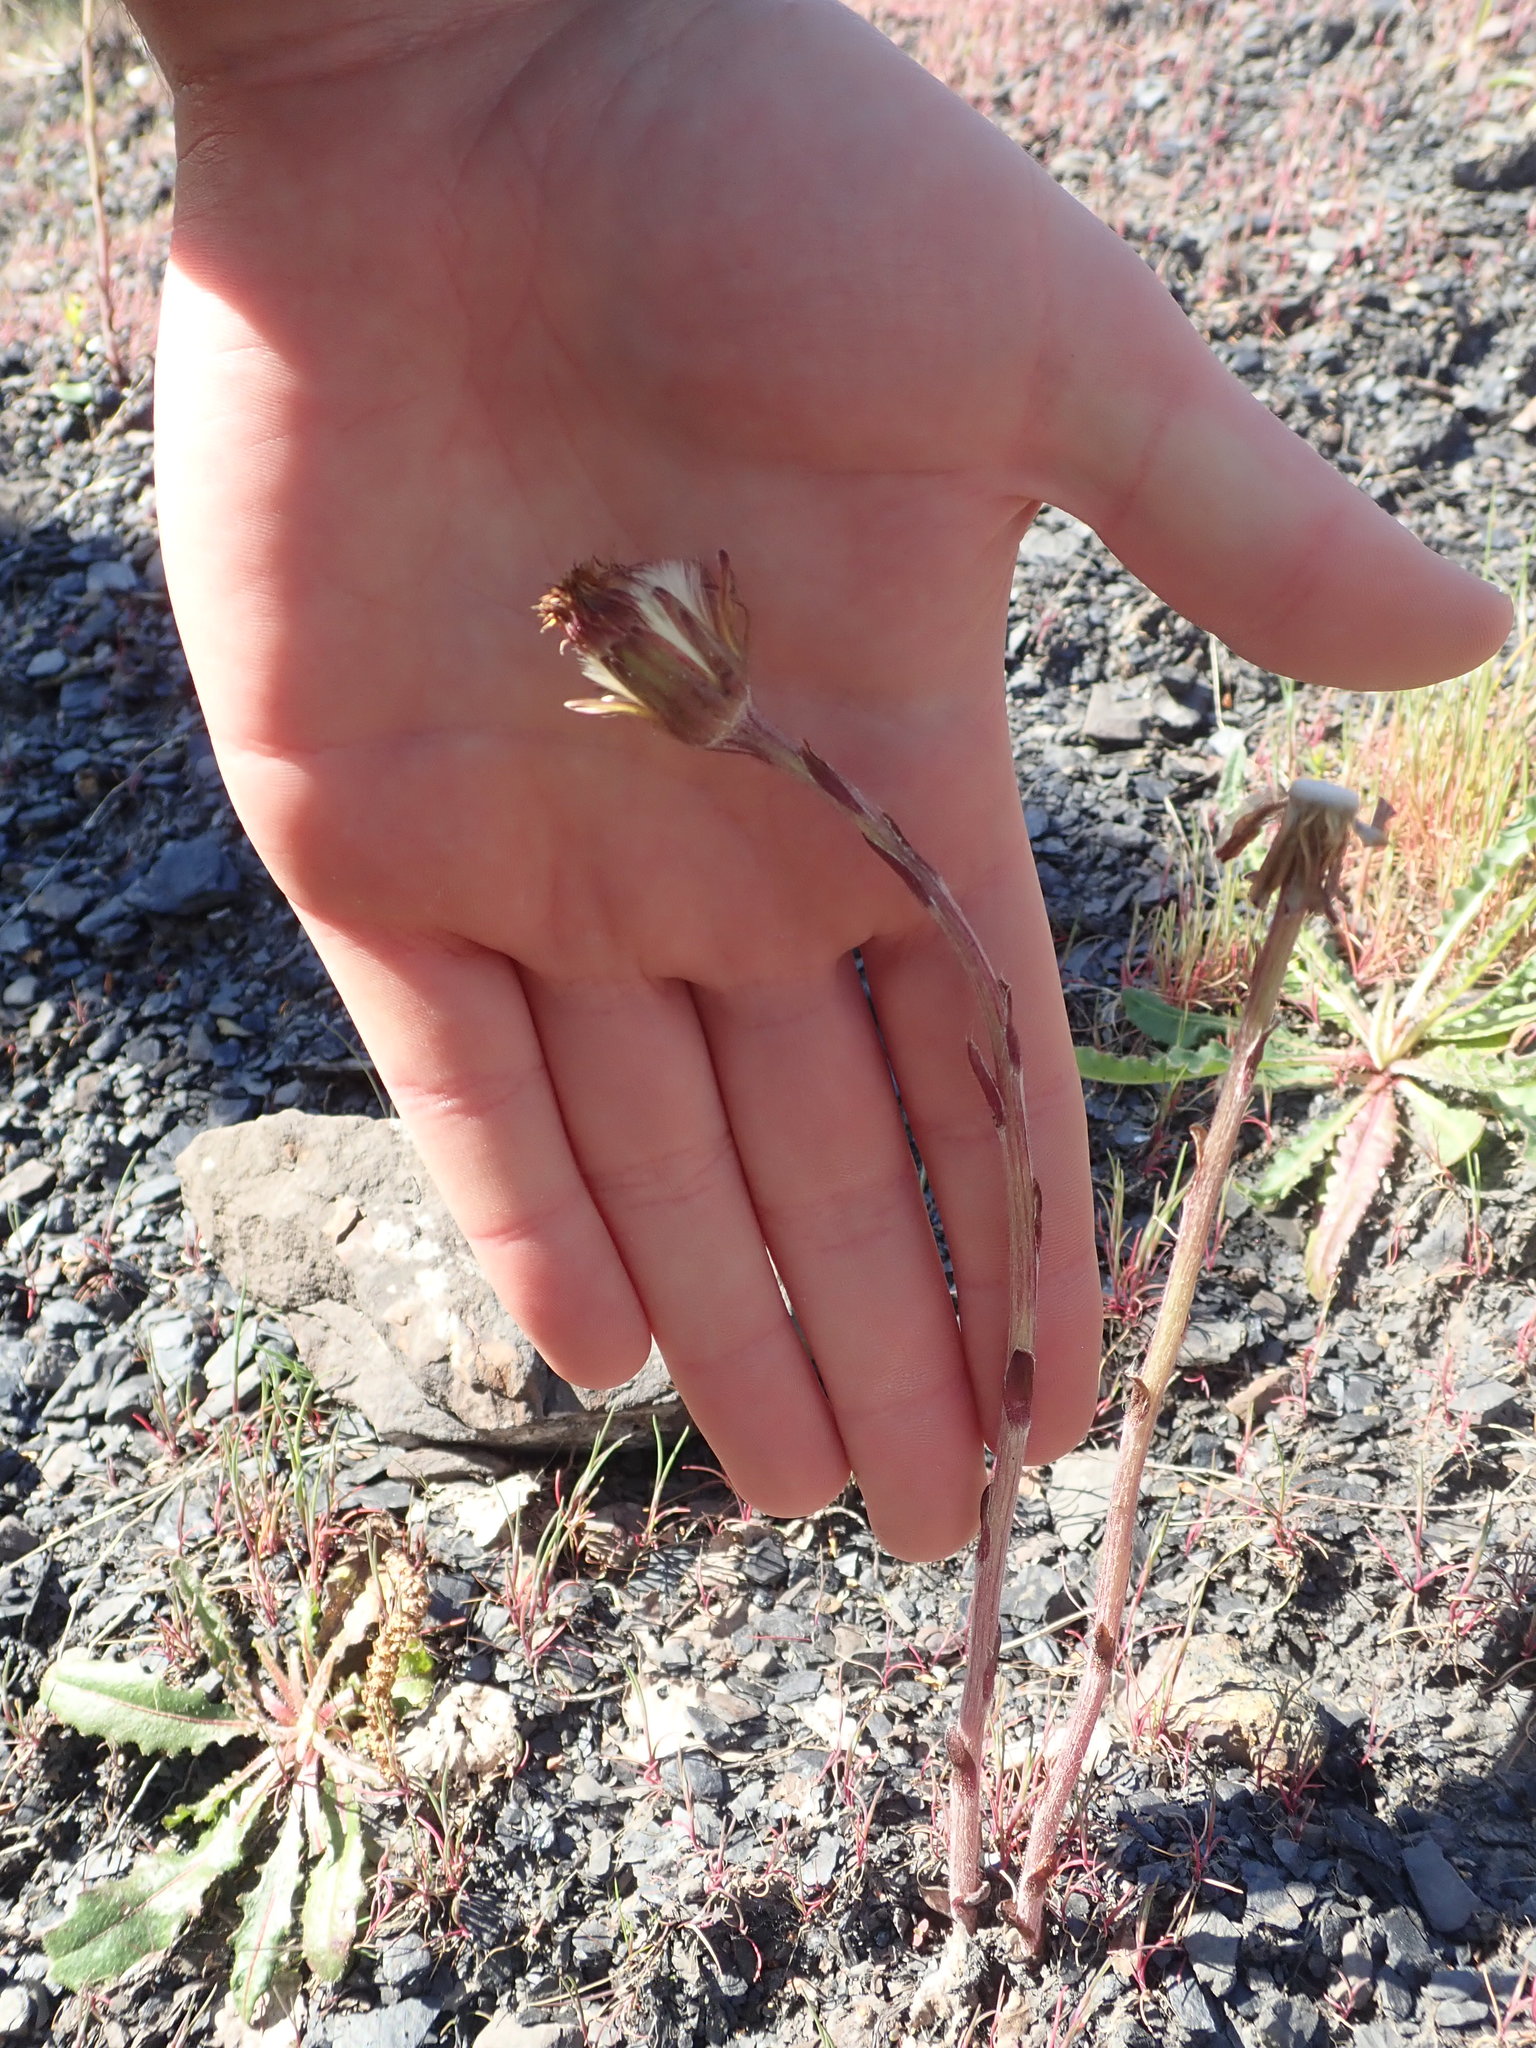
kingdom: Plantae
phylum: Tracheophyta
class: Magnoliopsida
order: Asterales
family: Asteraceae
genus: Tussilago
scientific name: Tussilago farfara
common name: Coltsfoot
